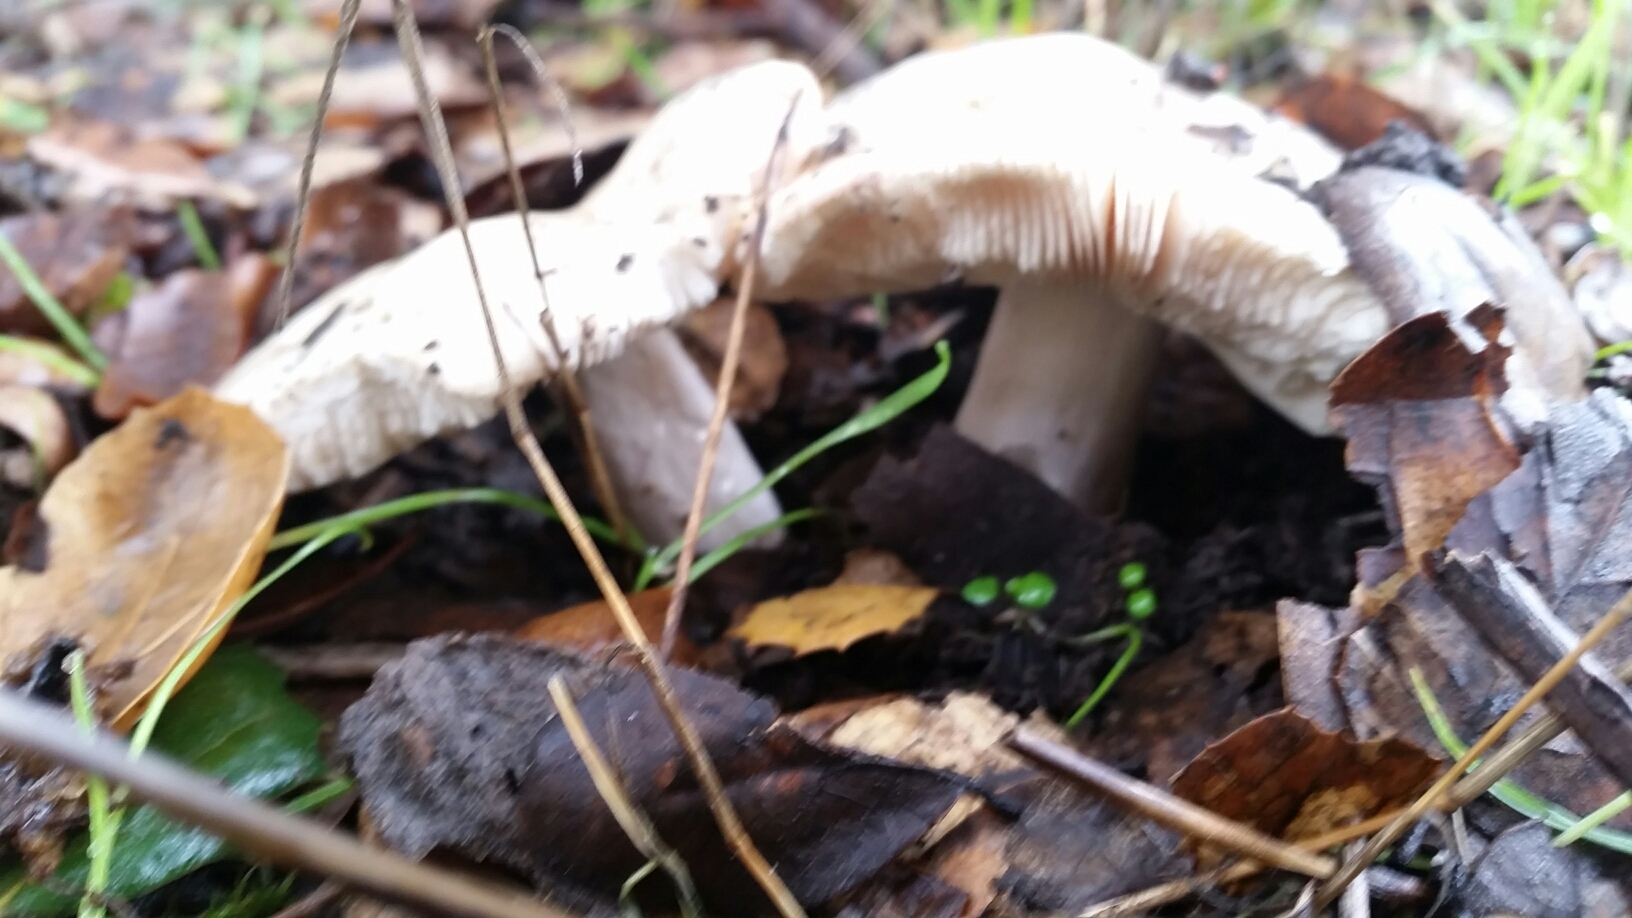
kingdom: Fungi
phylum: Basidiomycota
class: Agaricomycetes
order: Agaricales
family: Hygrophoraceae
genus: Hygrophorus
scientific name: Hygrophorus eburneus
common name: Ivory wax-cap
